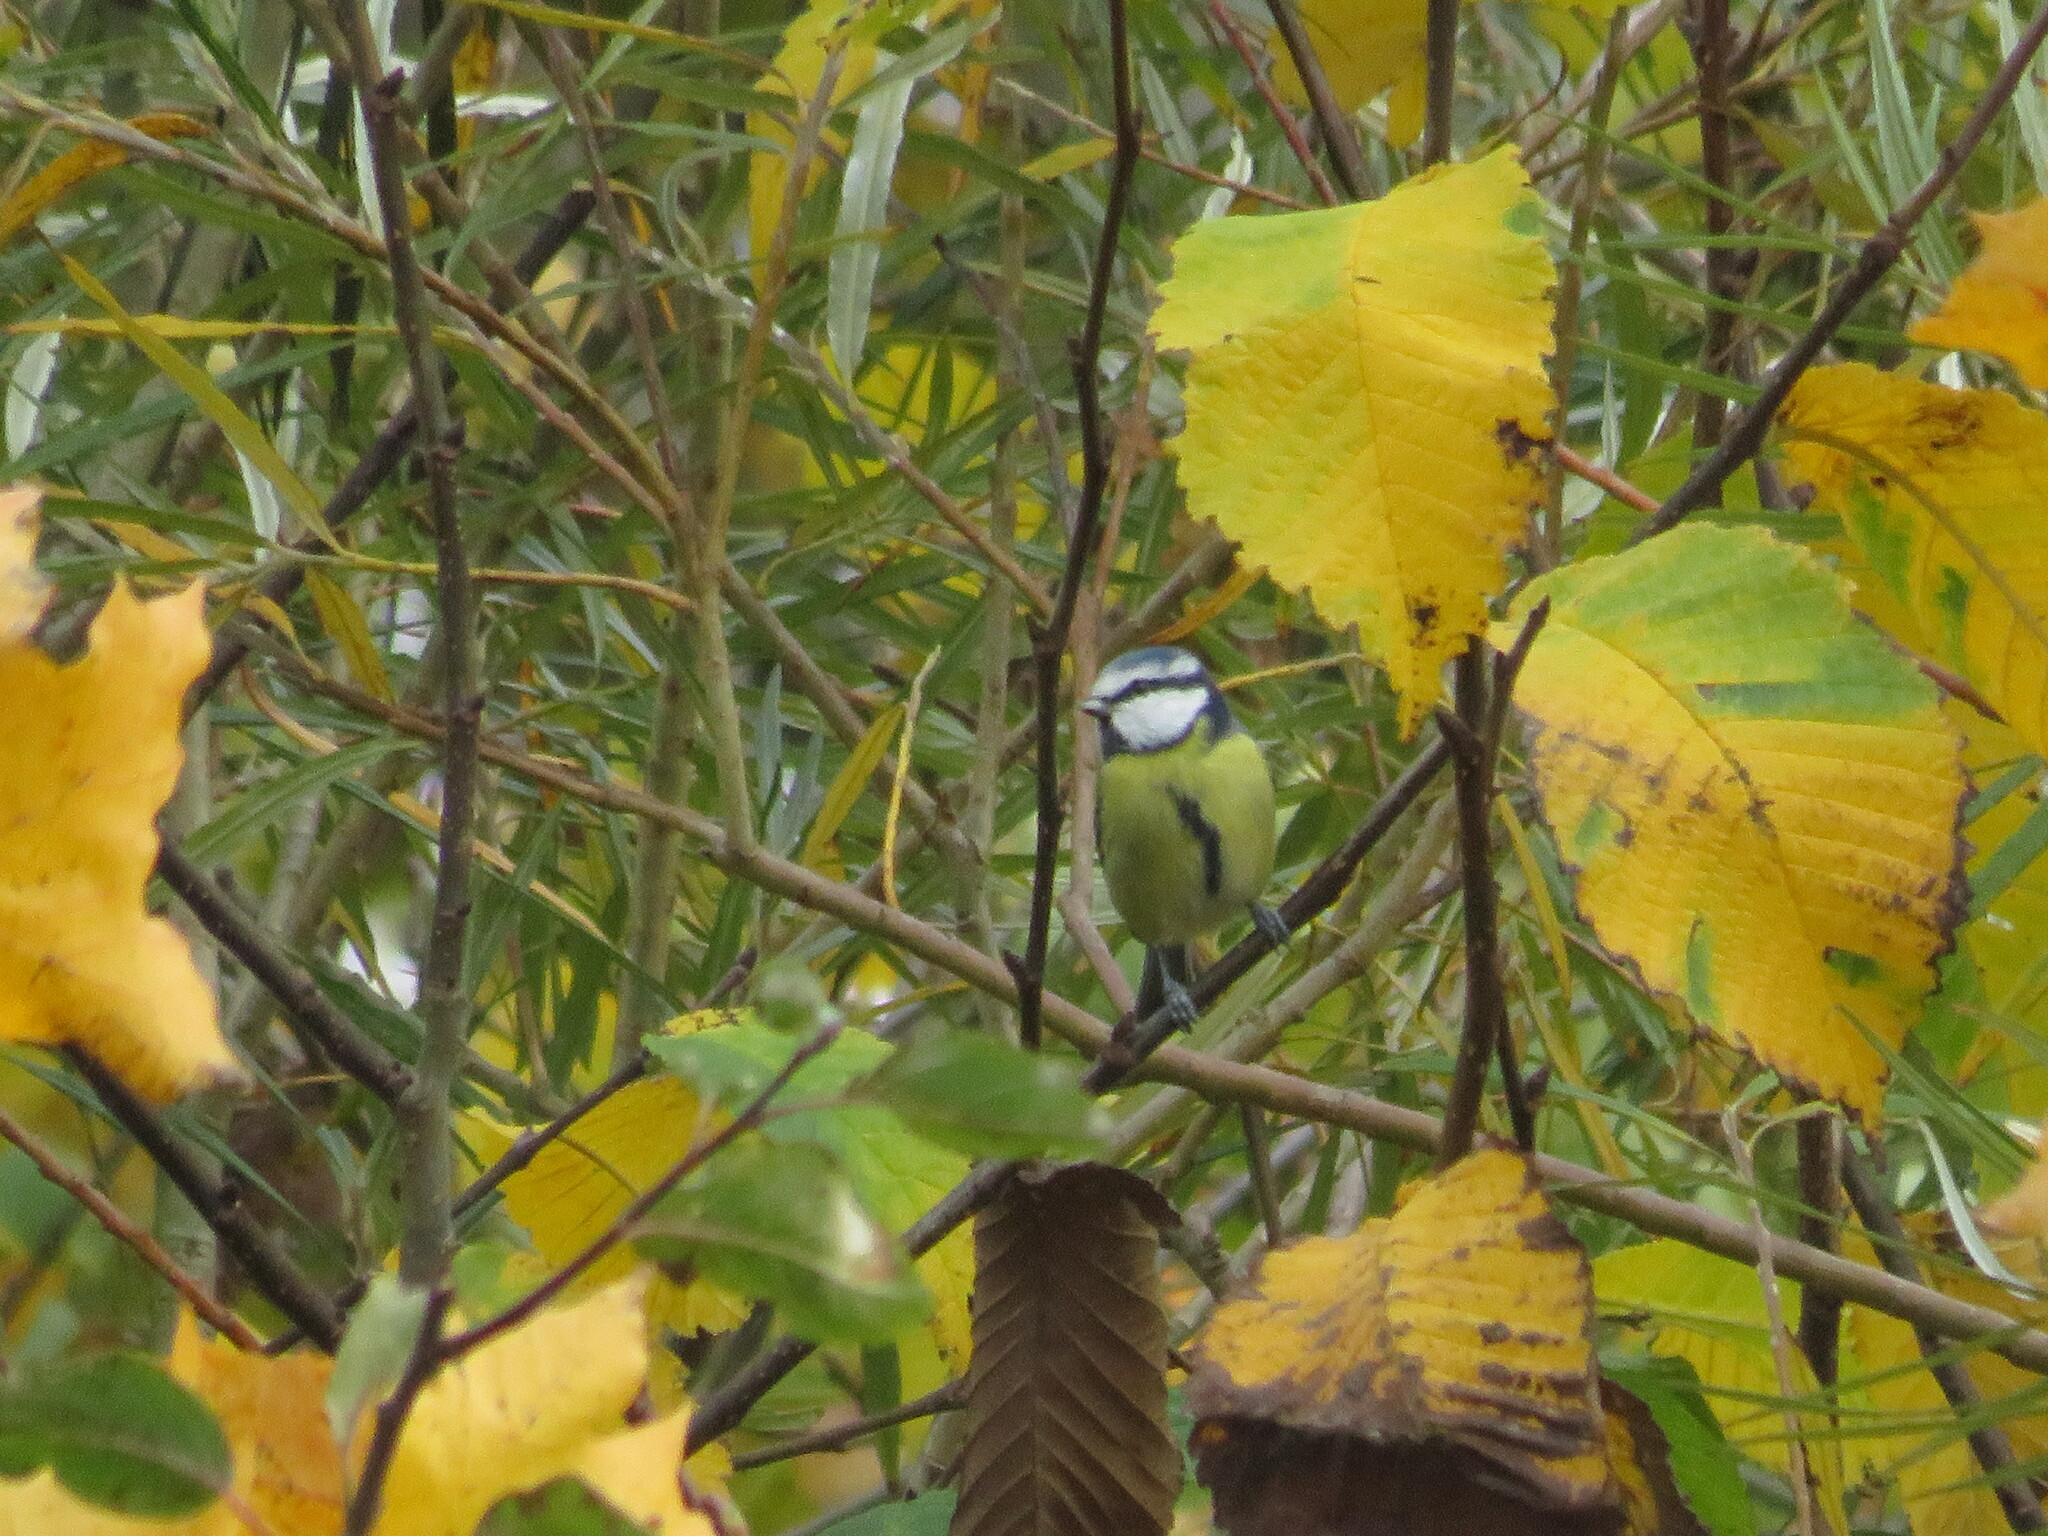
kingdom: Animalia
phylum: Chordata
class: Aves
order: Passeriformes
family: Paridae
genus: Cyanistes
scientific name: Cyanistes caeruleus
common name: Eurasian blue tit
